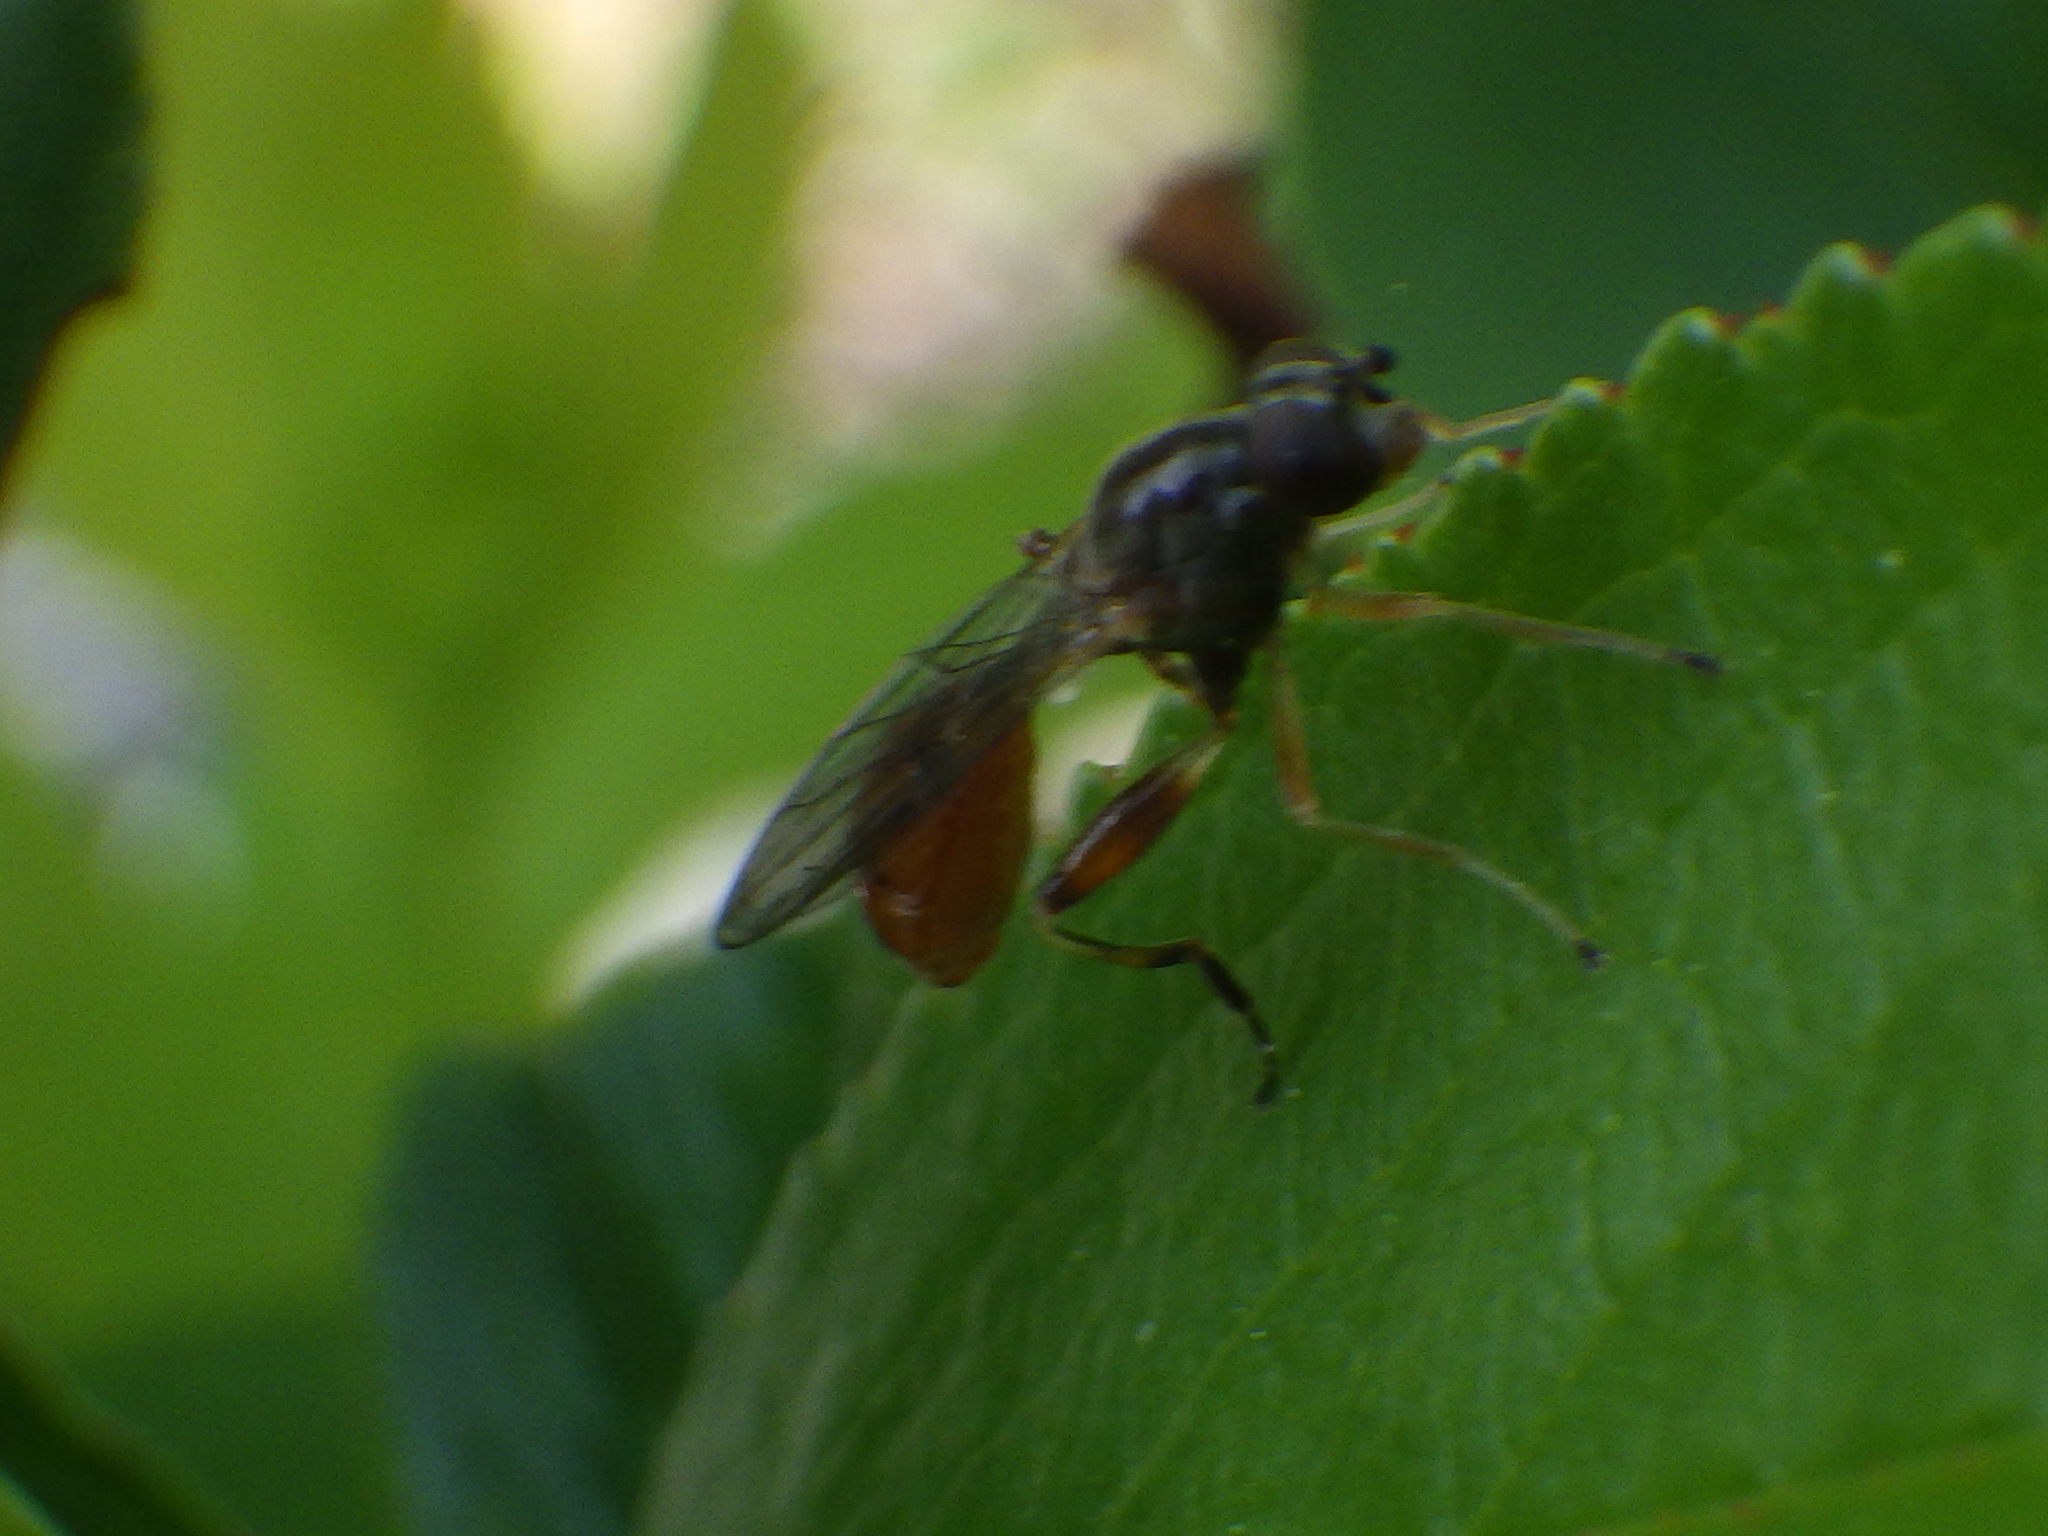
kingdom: Animalia
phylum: Arthropoda
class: Insecta
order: Diptera
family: Syrphidae
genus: Sphegina
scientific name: Sphegina rufiventris
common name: Black-horned pufftail
